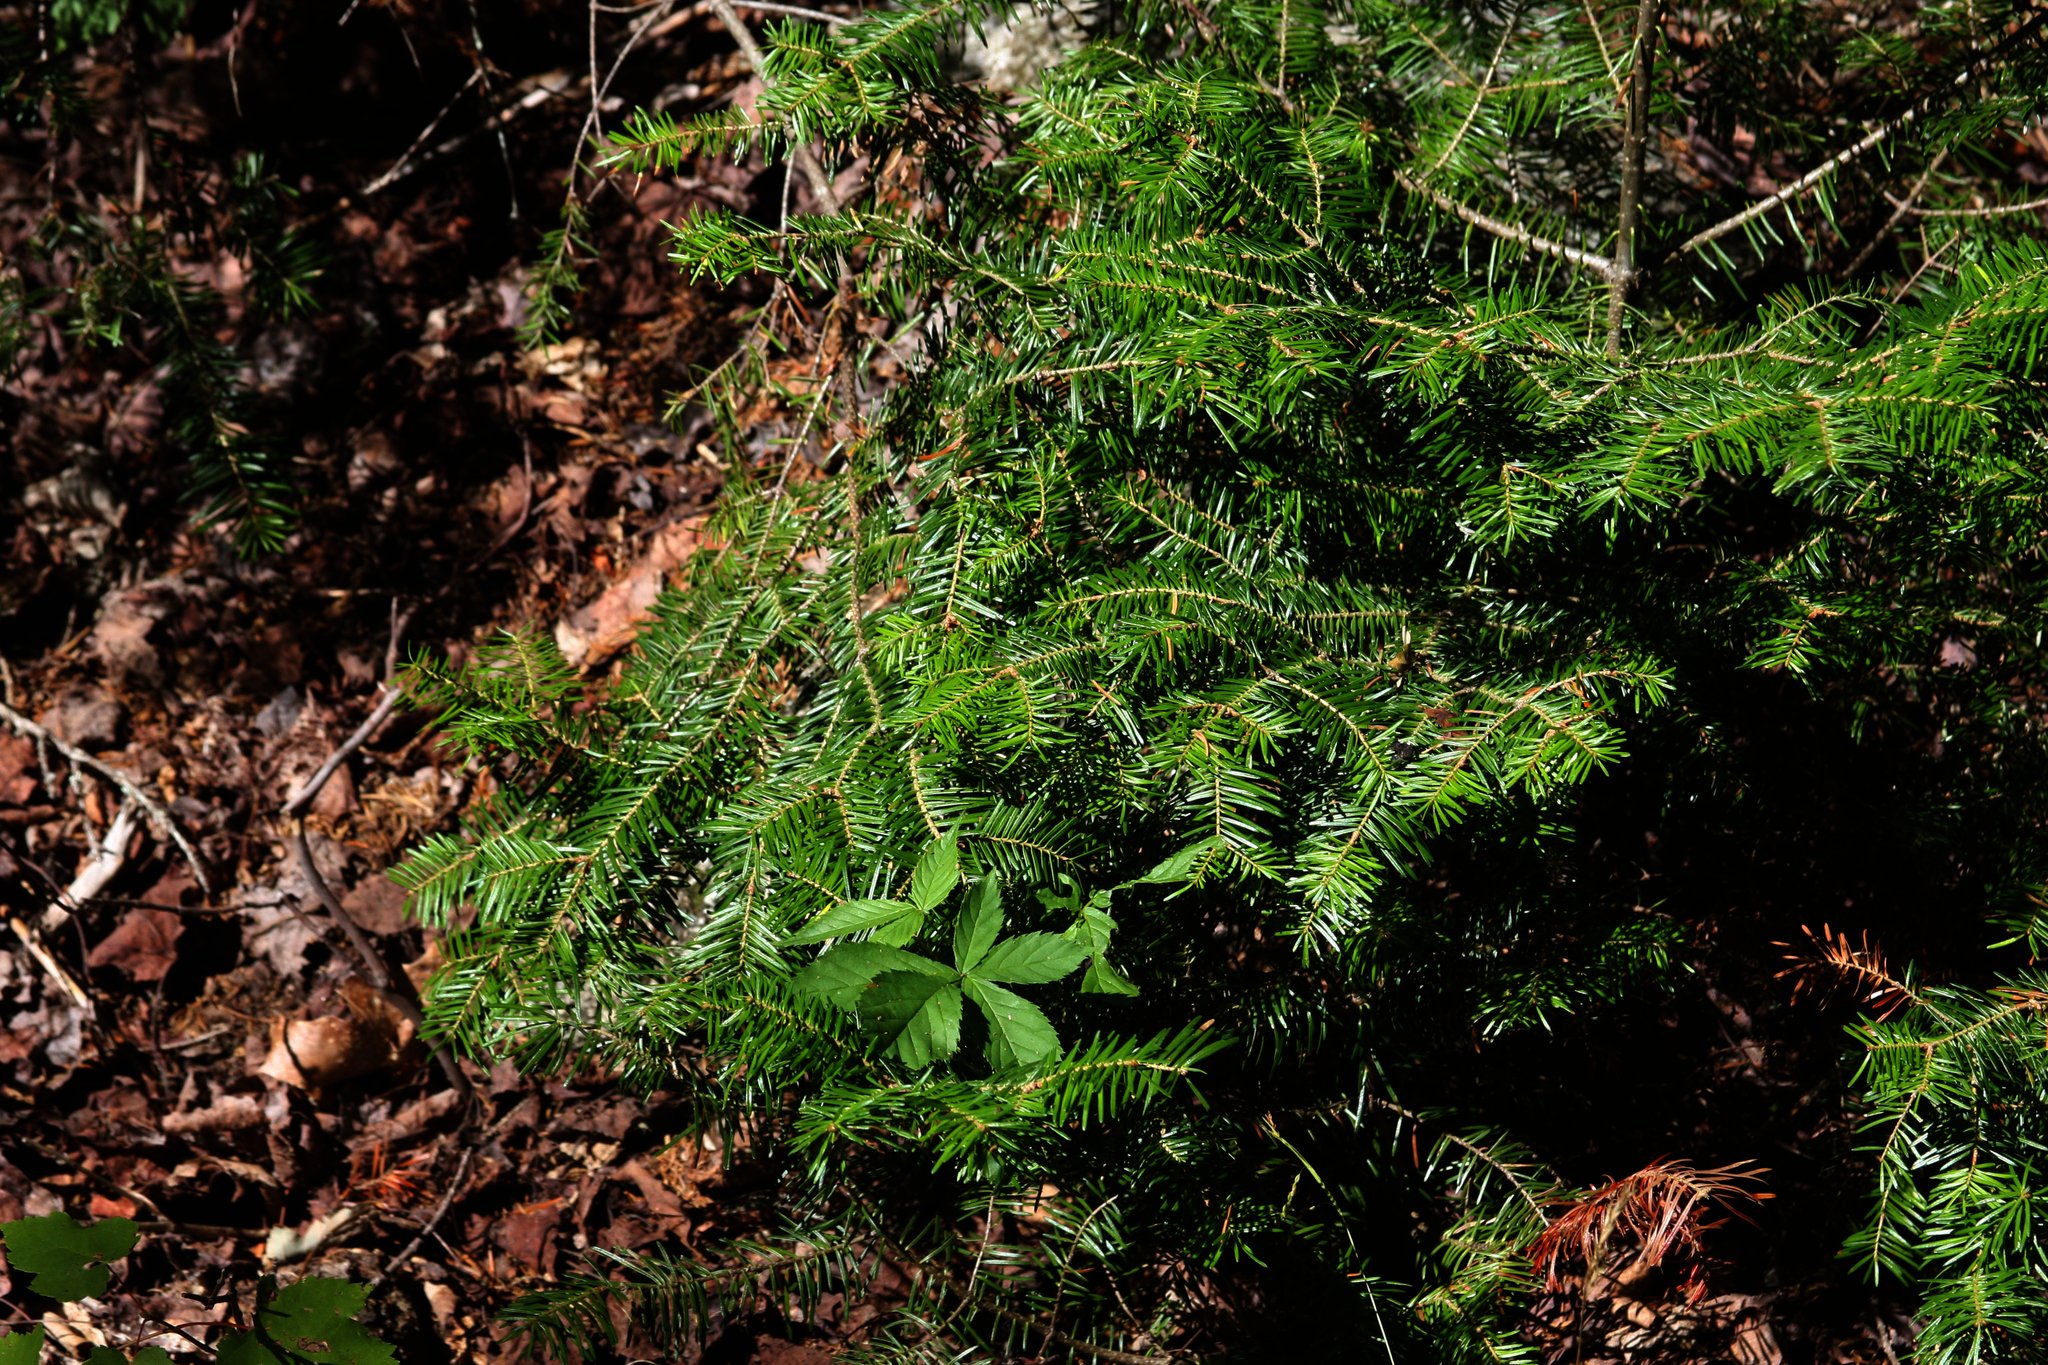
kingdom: Plantae
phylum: Tracheophyta
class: Pinopsida
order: Pinales
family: Pinaceae
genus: Abies
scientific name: Abies balsamea
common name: Balsam fir
